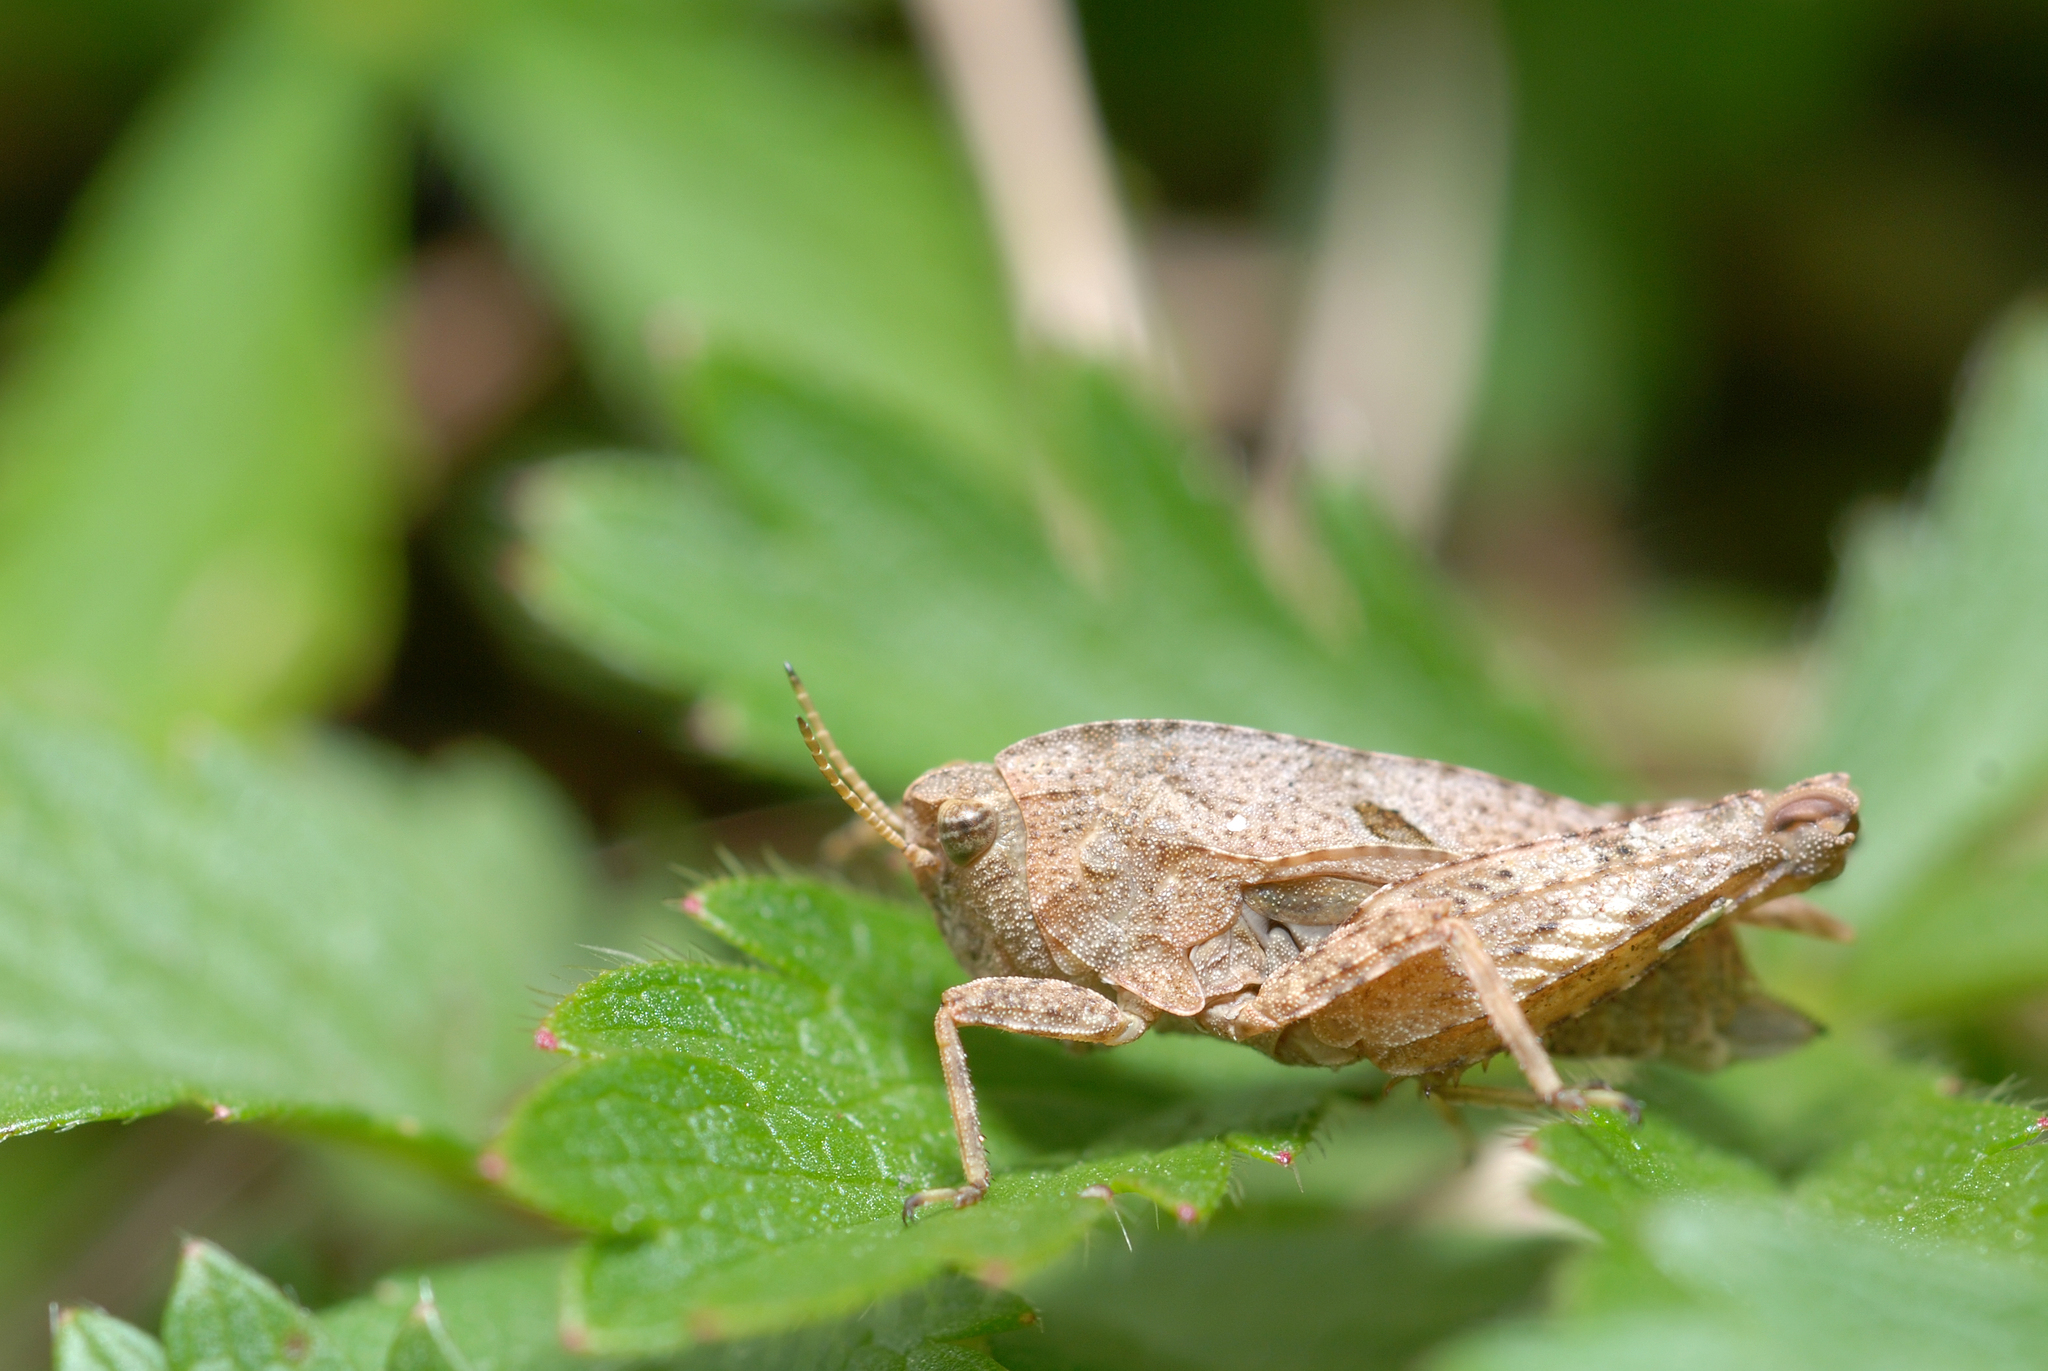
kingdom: Animalia
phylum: Arthropoda
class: Insecta
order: Orthoptera
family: Tetrigidae
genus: Tetrix
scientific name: Tetrix bipunctata
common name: Two-spotted groundhopper
